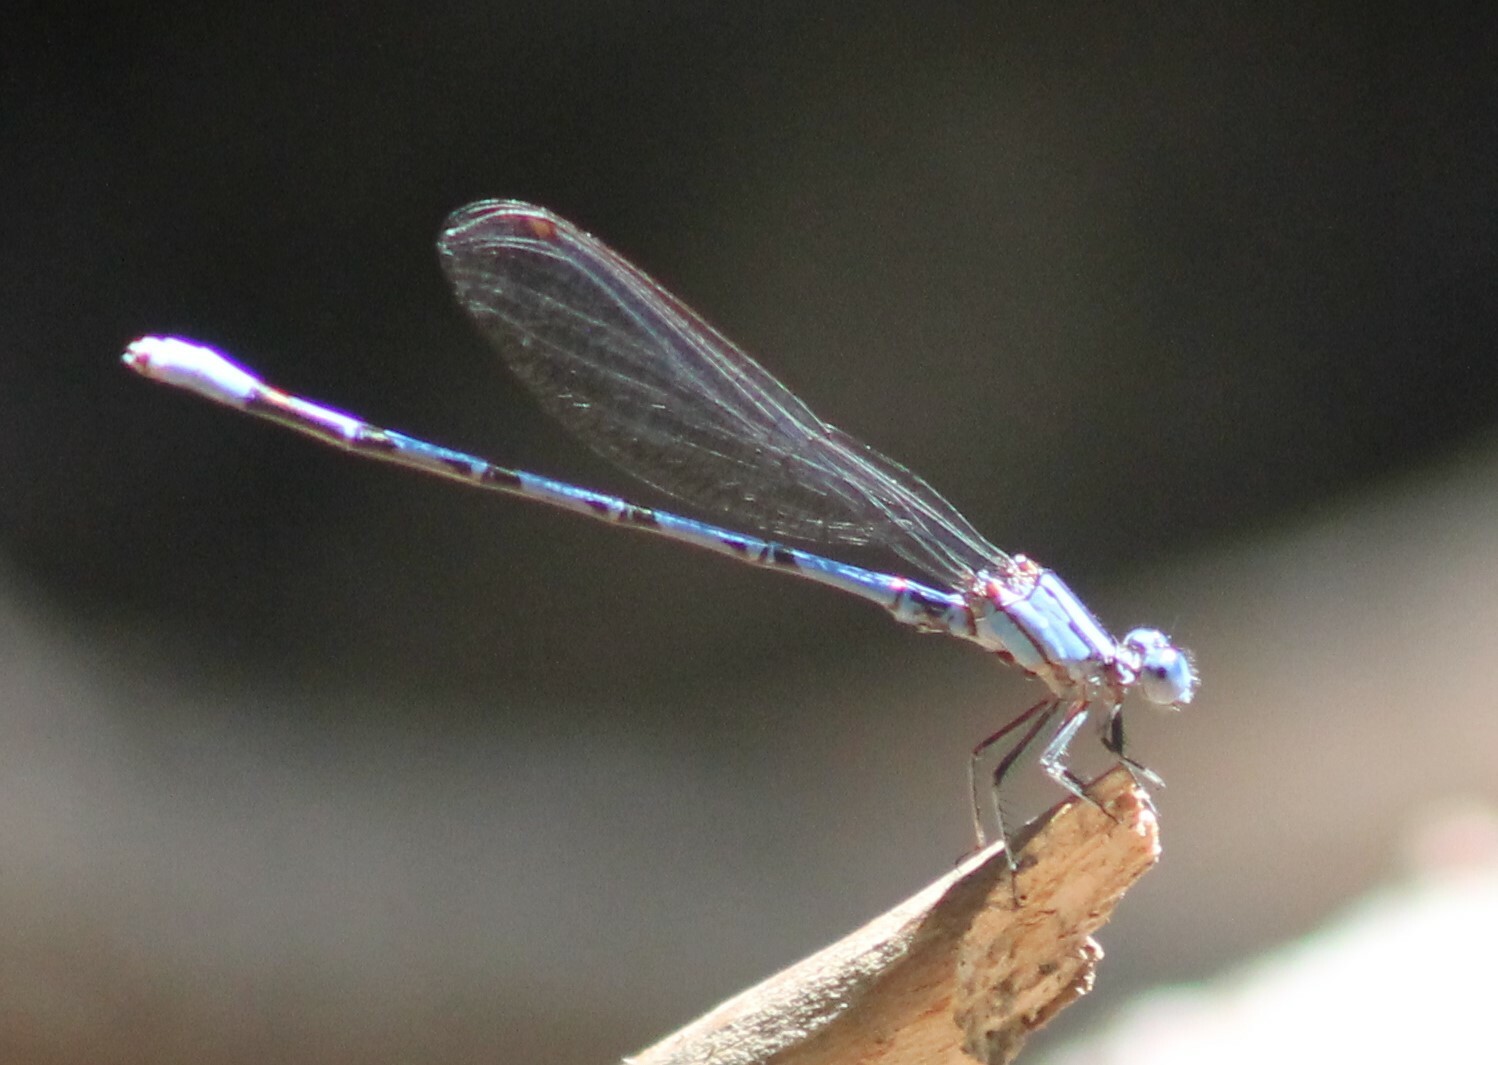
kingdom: Animalia
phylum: Arthropoda
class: Insecta
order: Odonata
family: Coenagrionidae
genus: Argia
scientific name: Argia funebris
